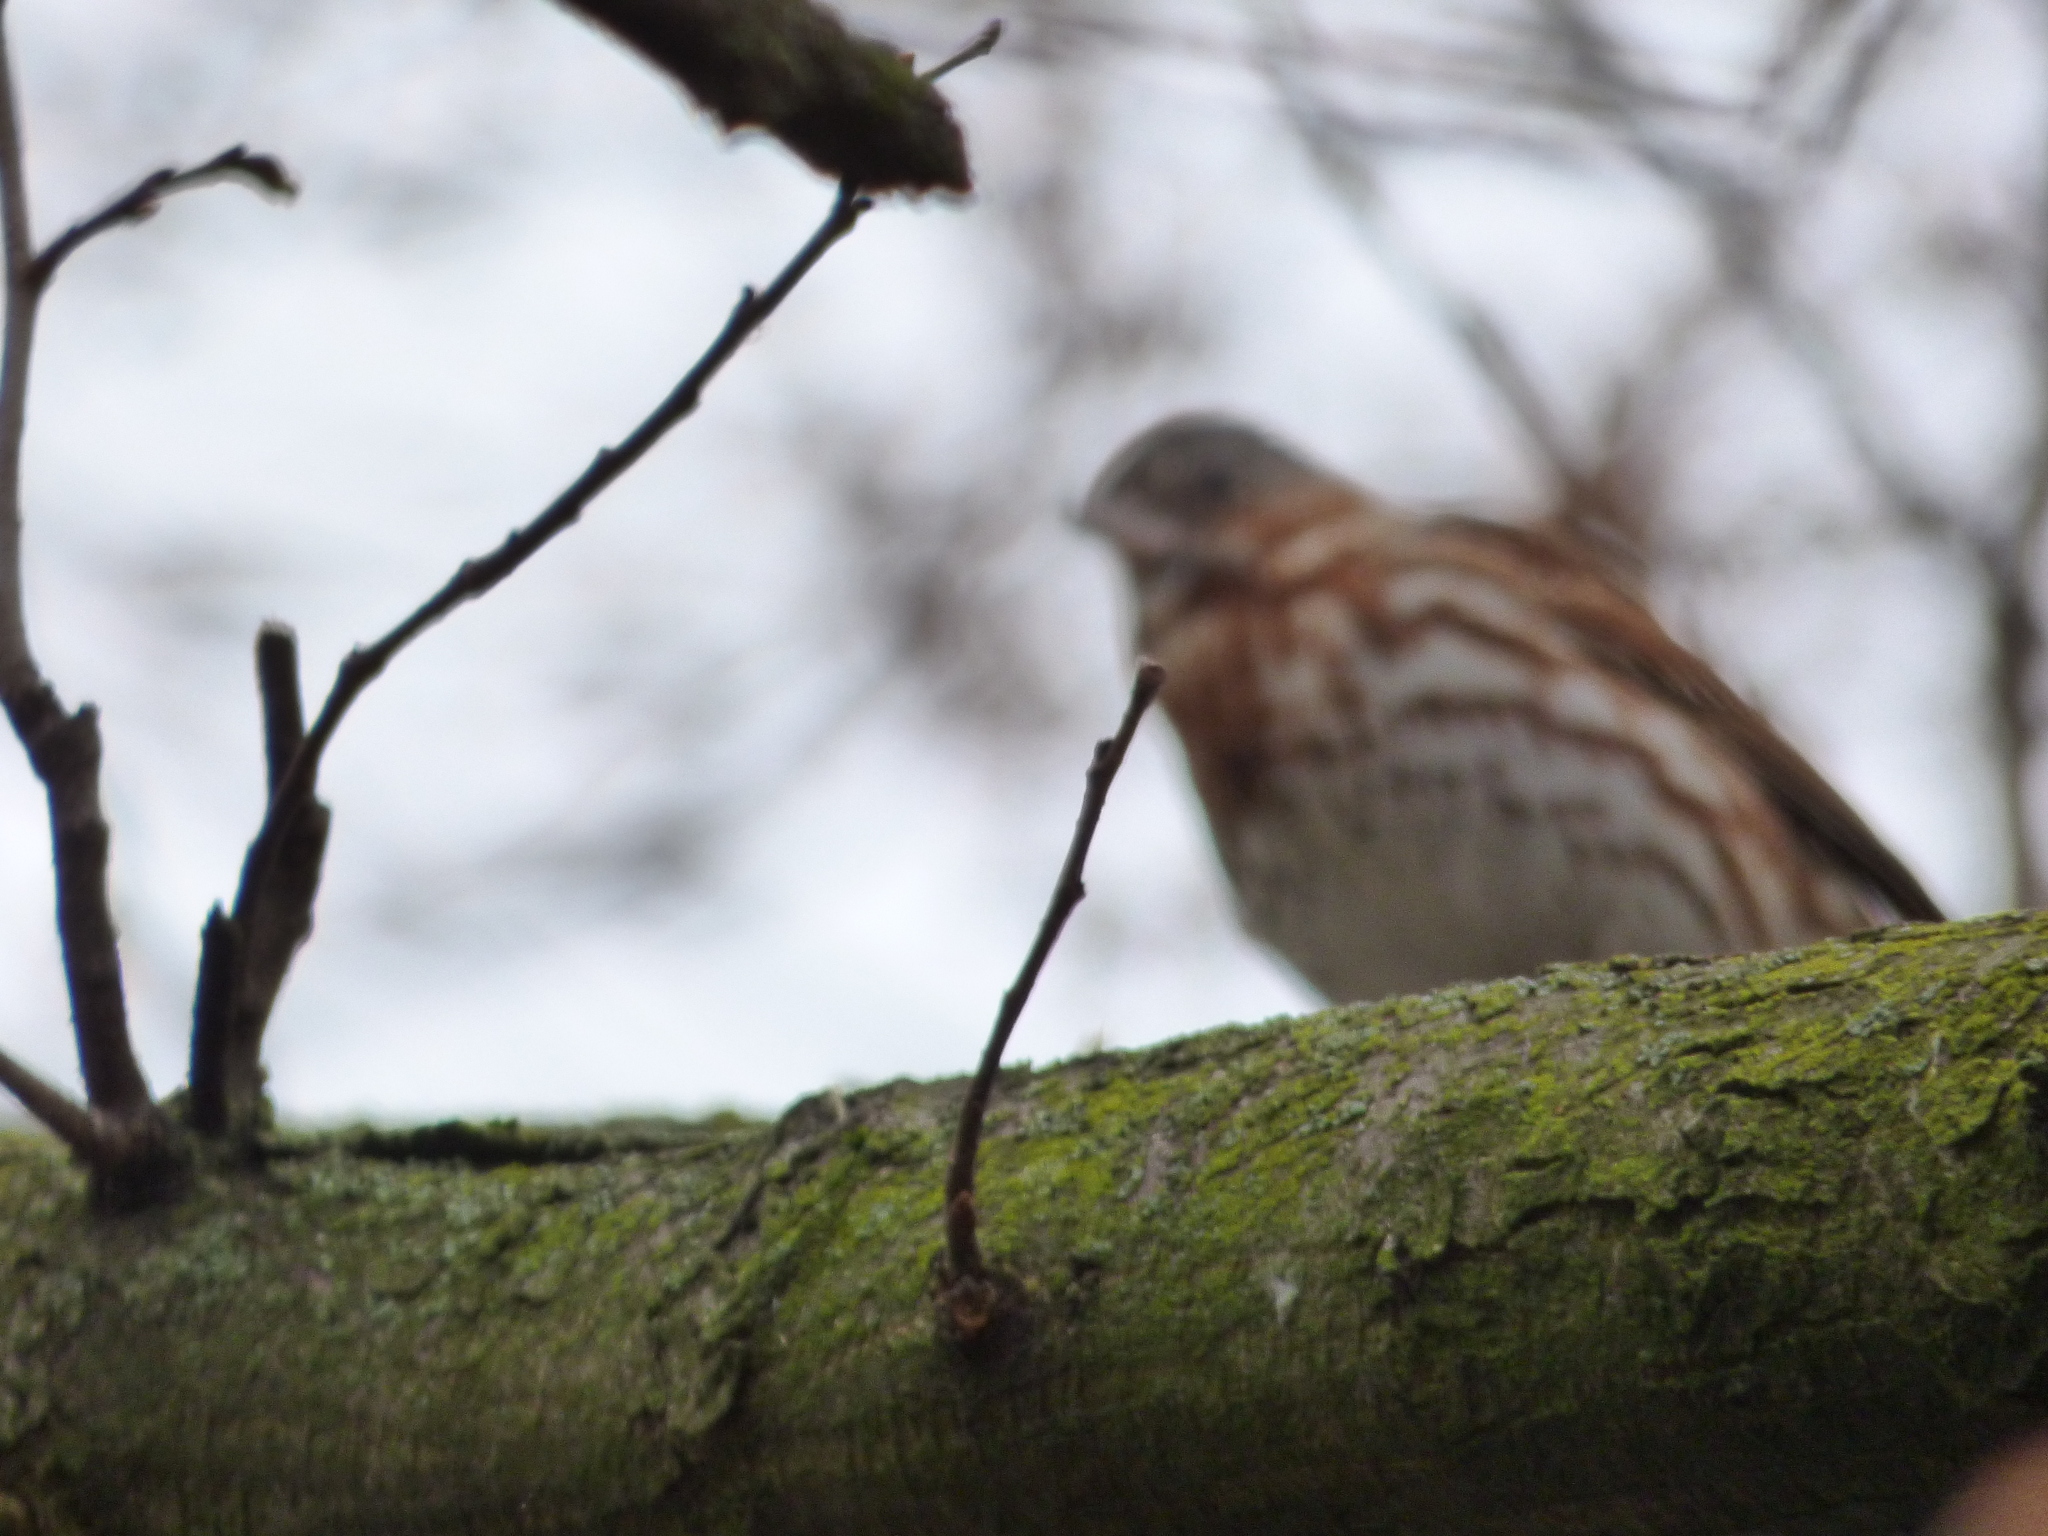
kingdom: Animalia
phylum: Chordata
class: Aves
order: Passeriformes
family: Passerellidae
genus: Passerella
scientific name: Passerella iliaca
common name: Fox sparrow
